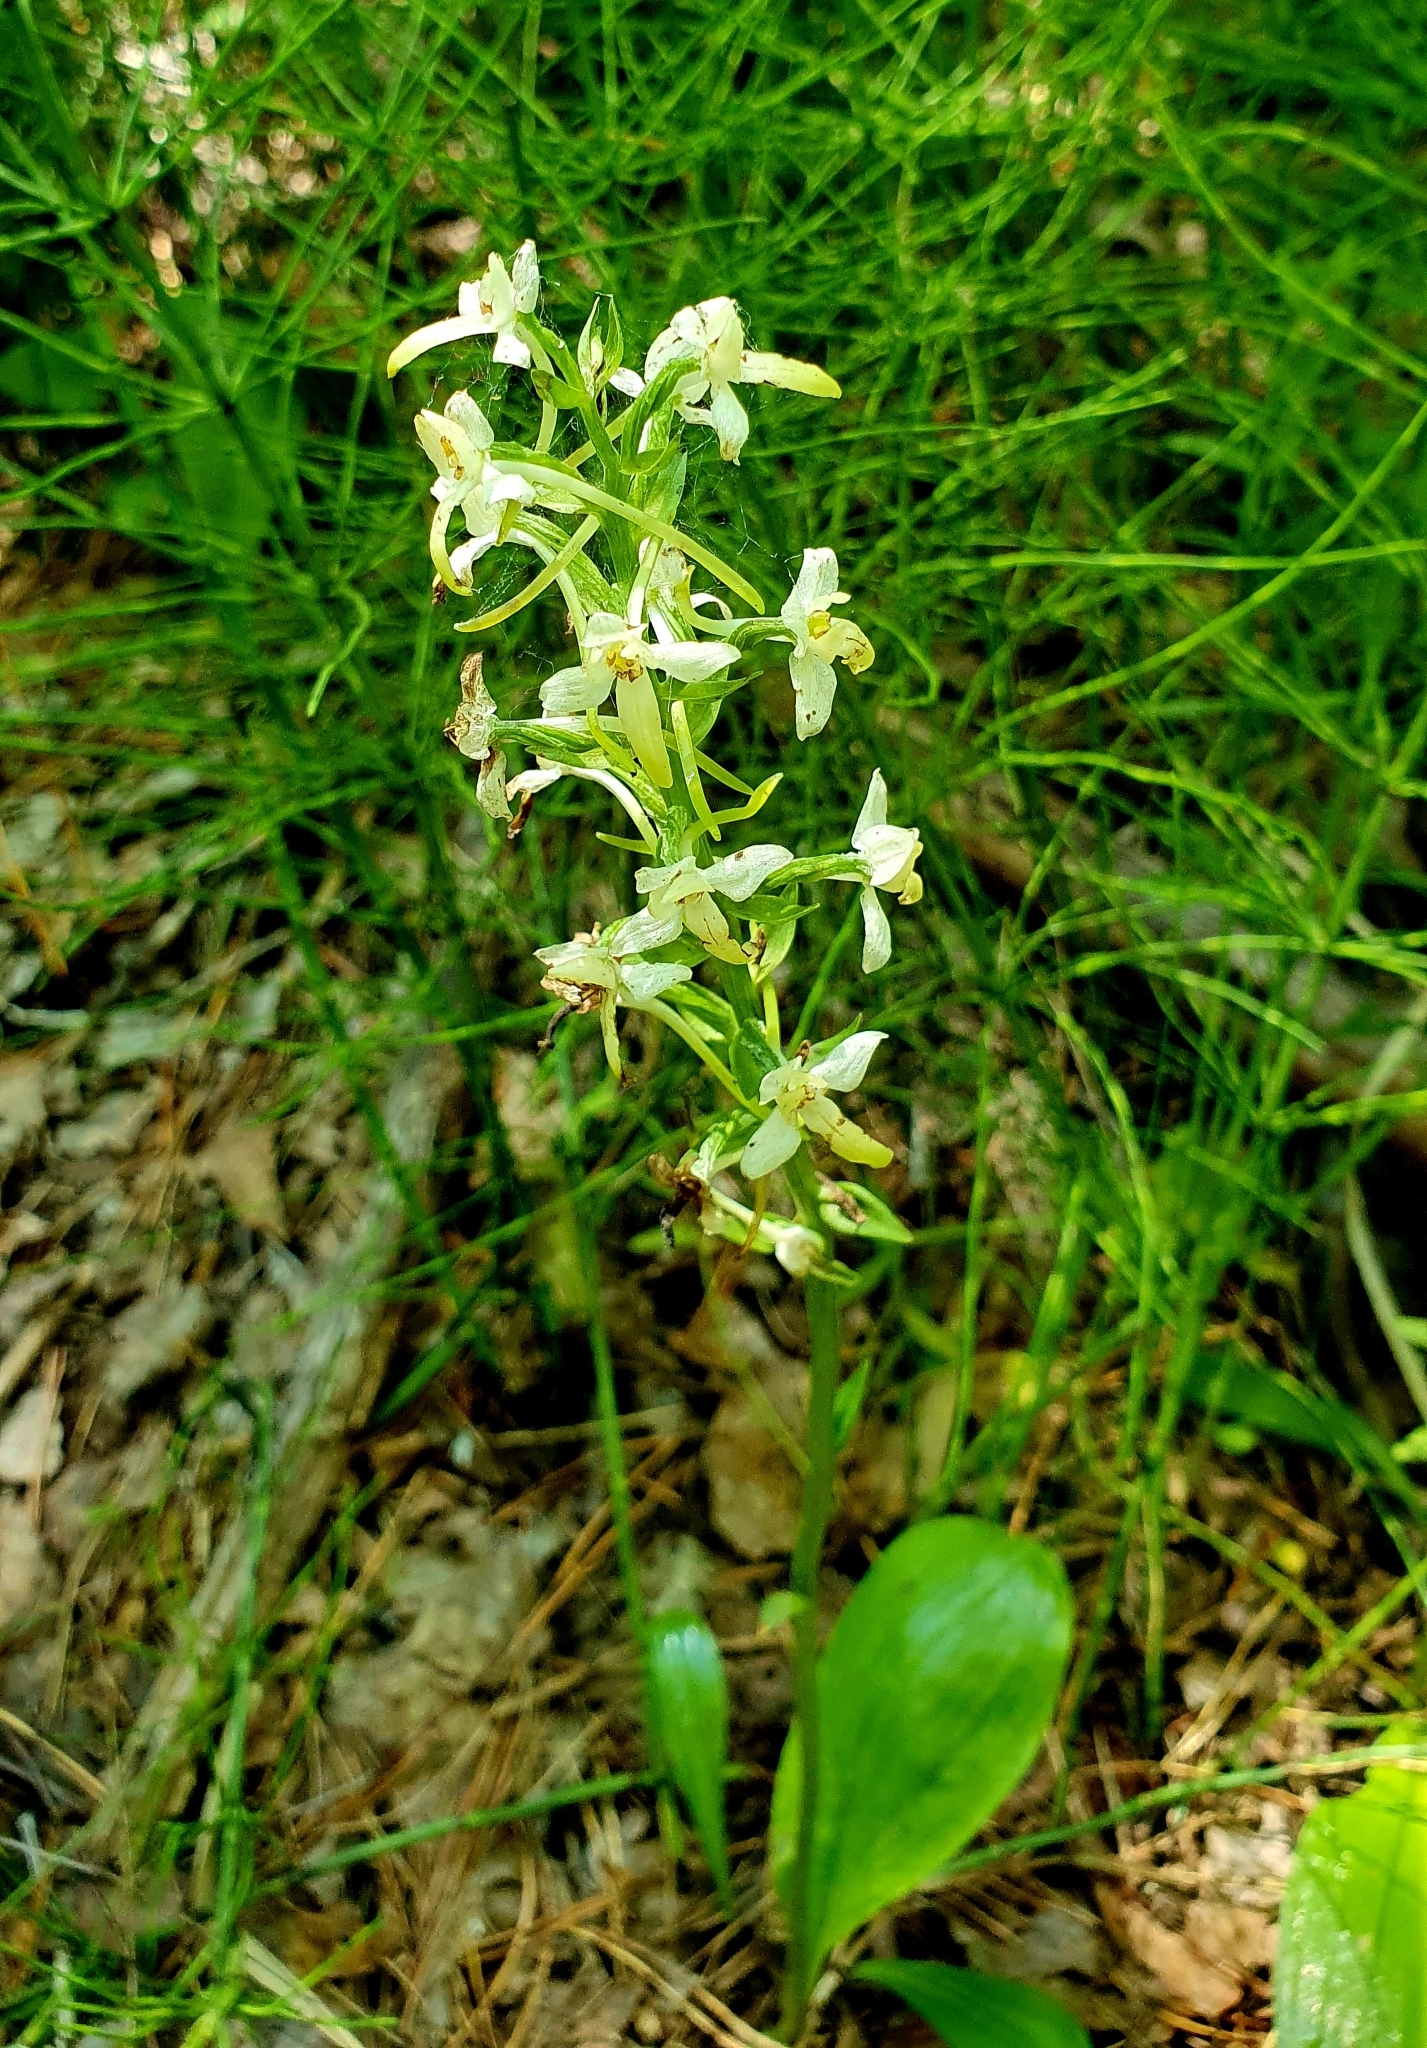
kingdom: Plantae
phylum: Tracheophyta
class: Liliopsida
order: Asparagales
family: Orchidaceae
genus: Platanthera
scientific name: Platanthera hybrida
